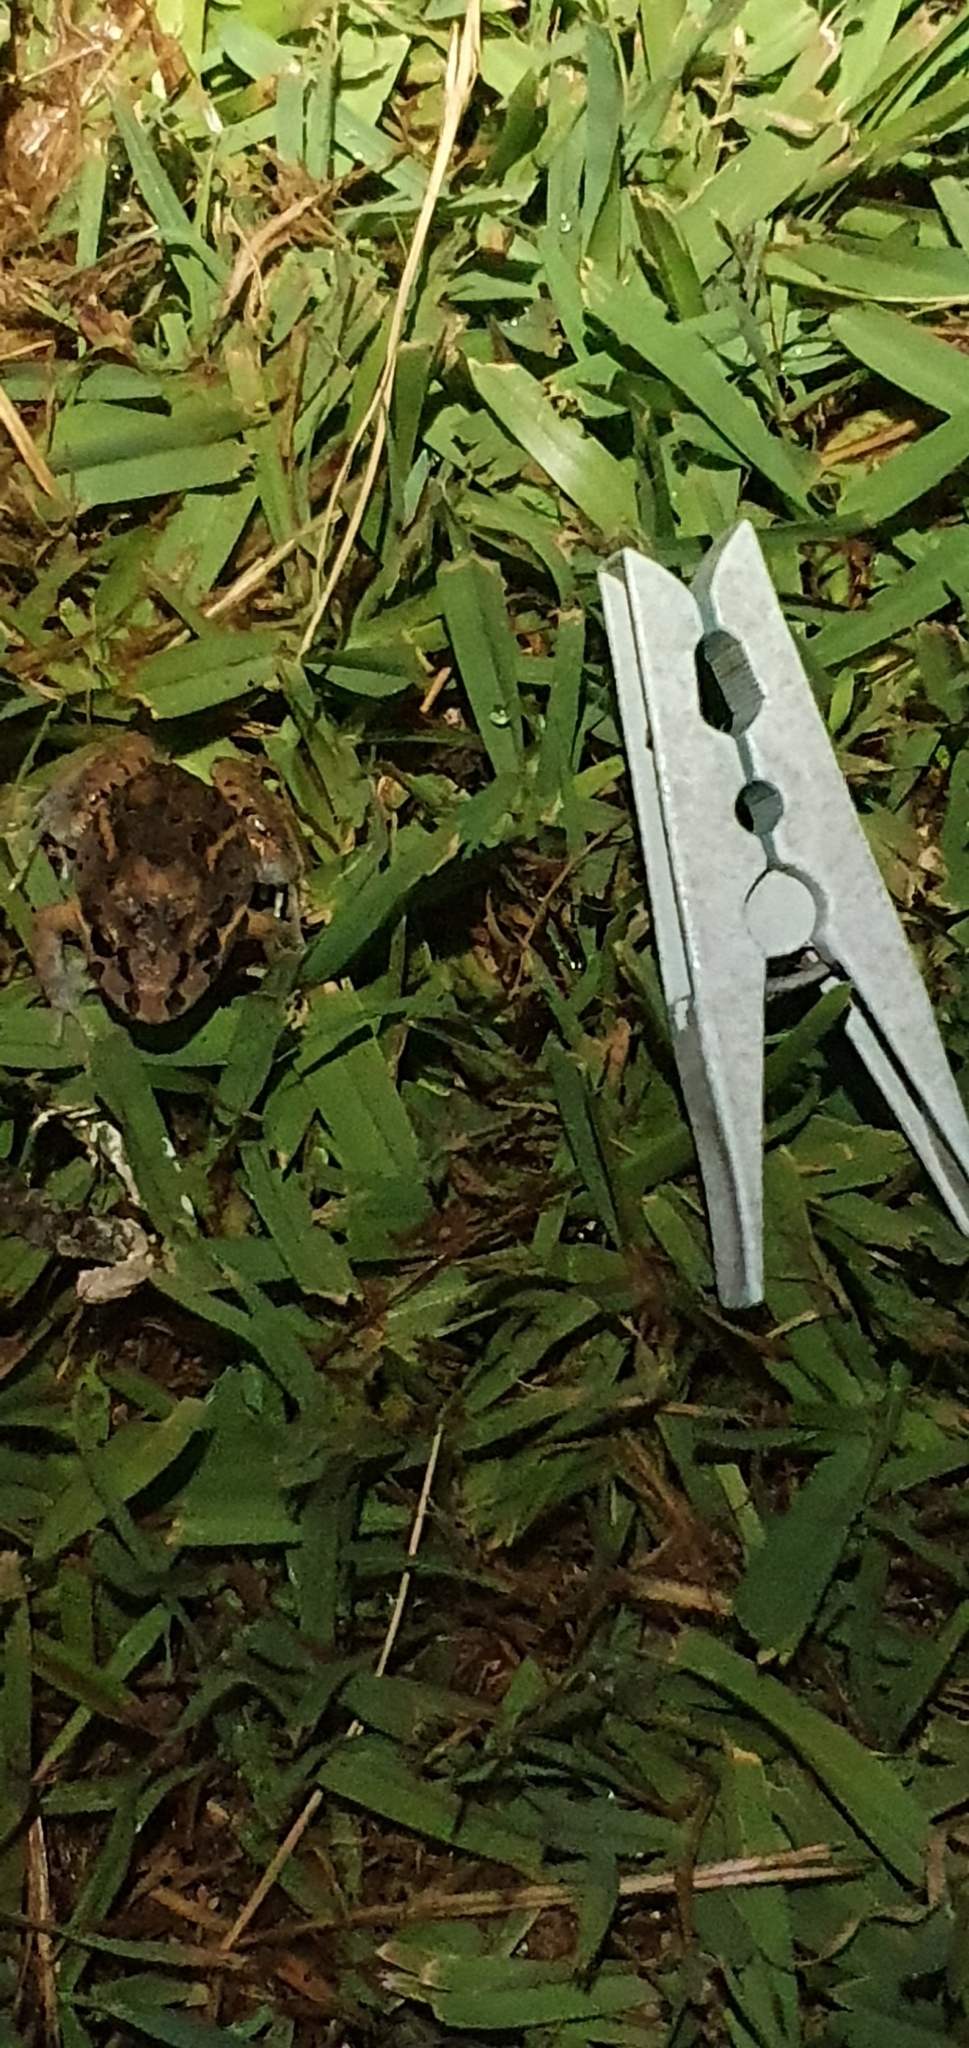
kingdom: Animalia
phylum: Chordata
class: Amphibia
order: Anura
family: Limnodynastidae
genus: Limnodynastes
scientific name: Limnodynastes salmini
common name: Salmon-striped frog
